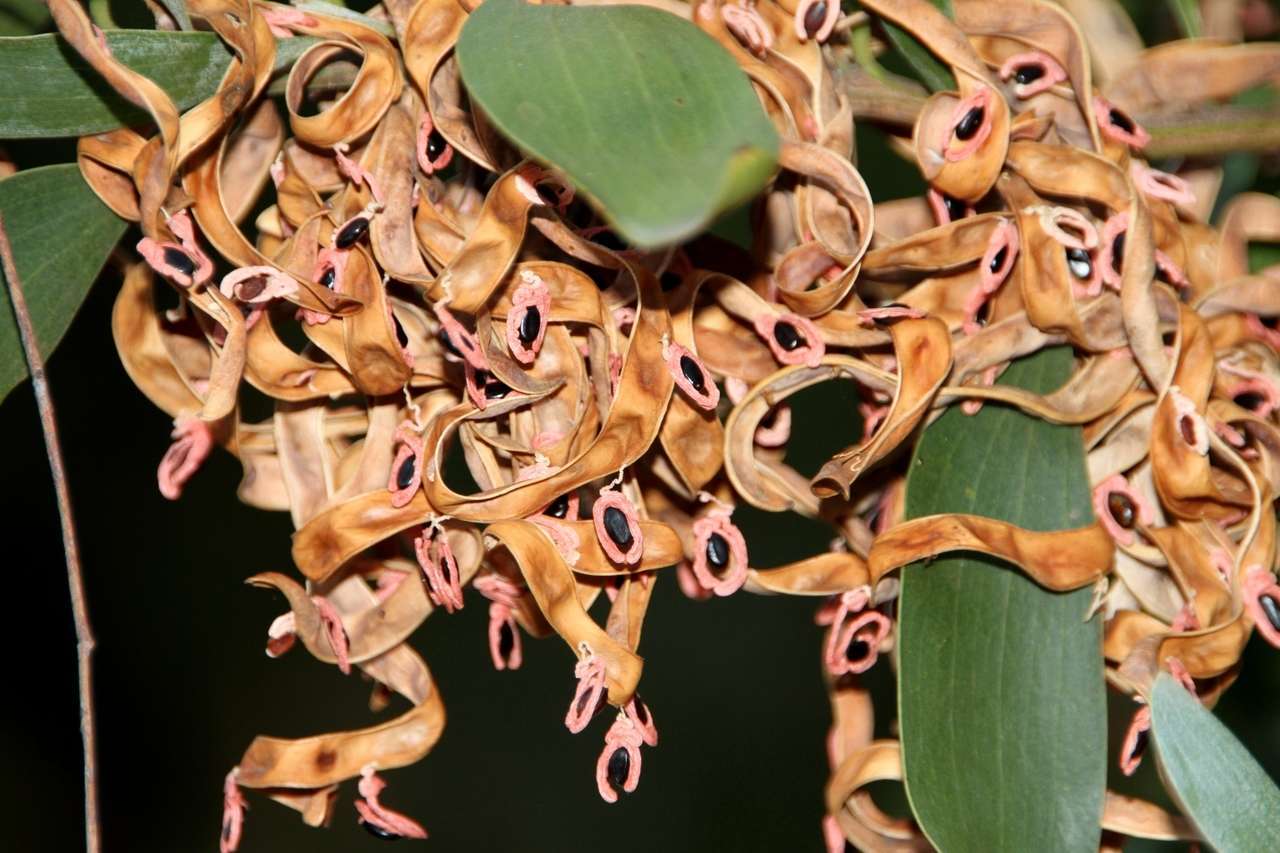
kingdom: Plantae
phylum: Tracheophyta
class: Magnoliopsida
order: Fabales
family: Fabaceae
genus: Acacia
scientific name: Acacia melanoxylon
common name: Blackwood
